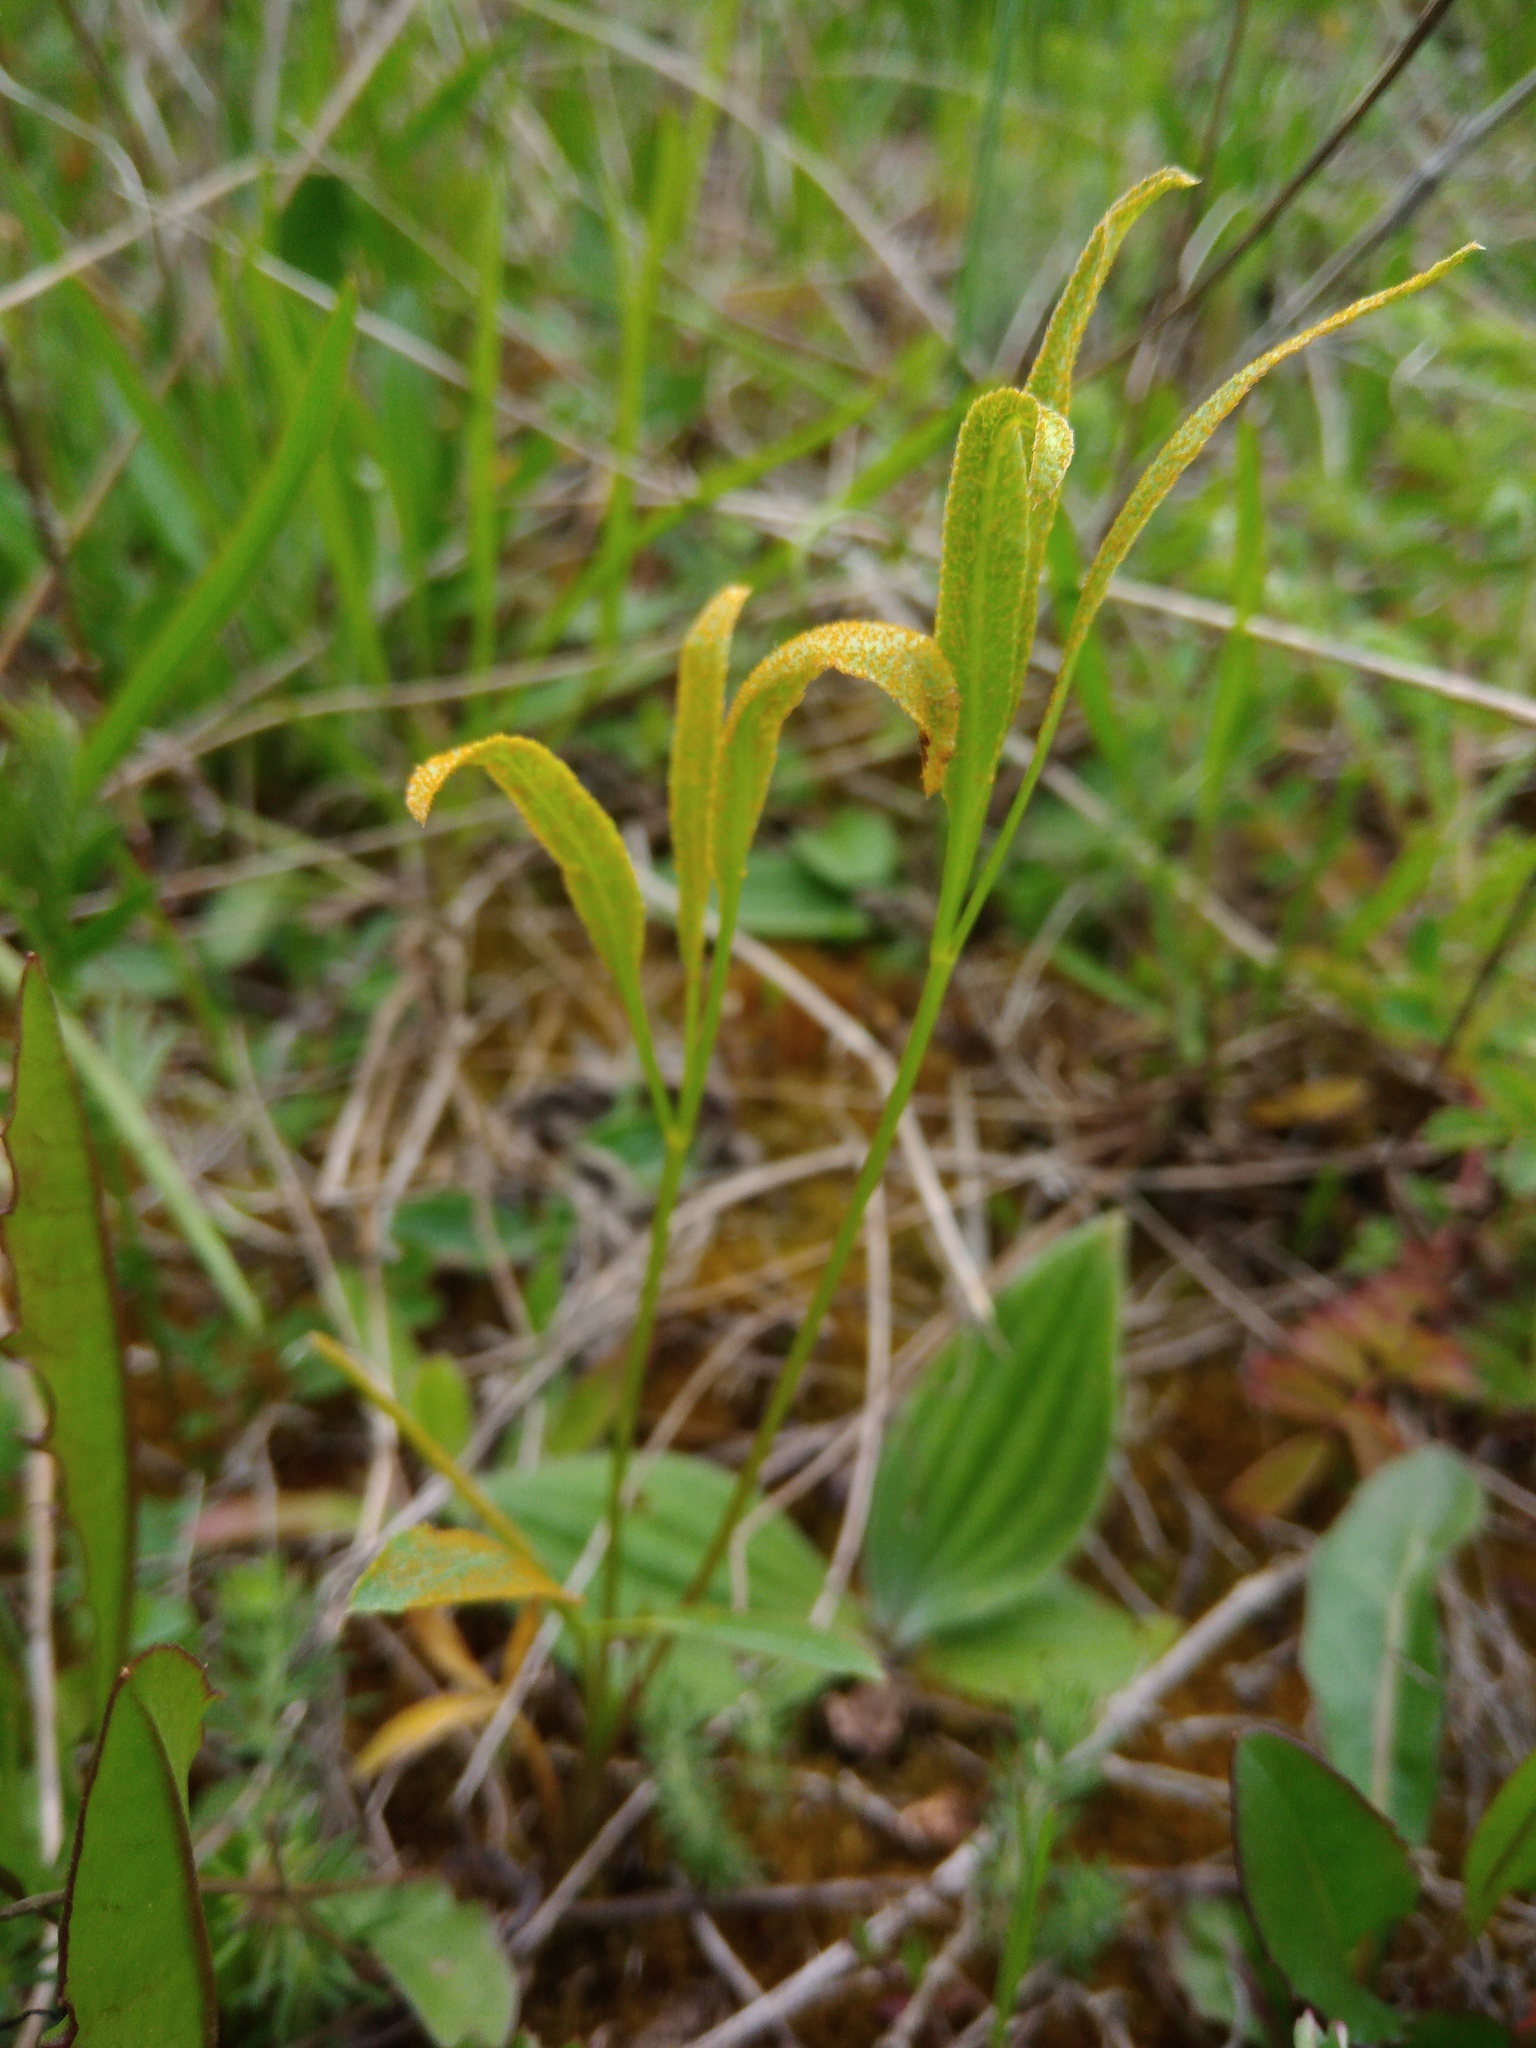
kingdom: Plantae
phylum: Tracheophyta
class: Magnoliopsida
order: Apiales
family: Apiaceae
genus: Falcaria
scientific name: Falcaria vulgaris
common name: Longleaf
